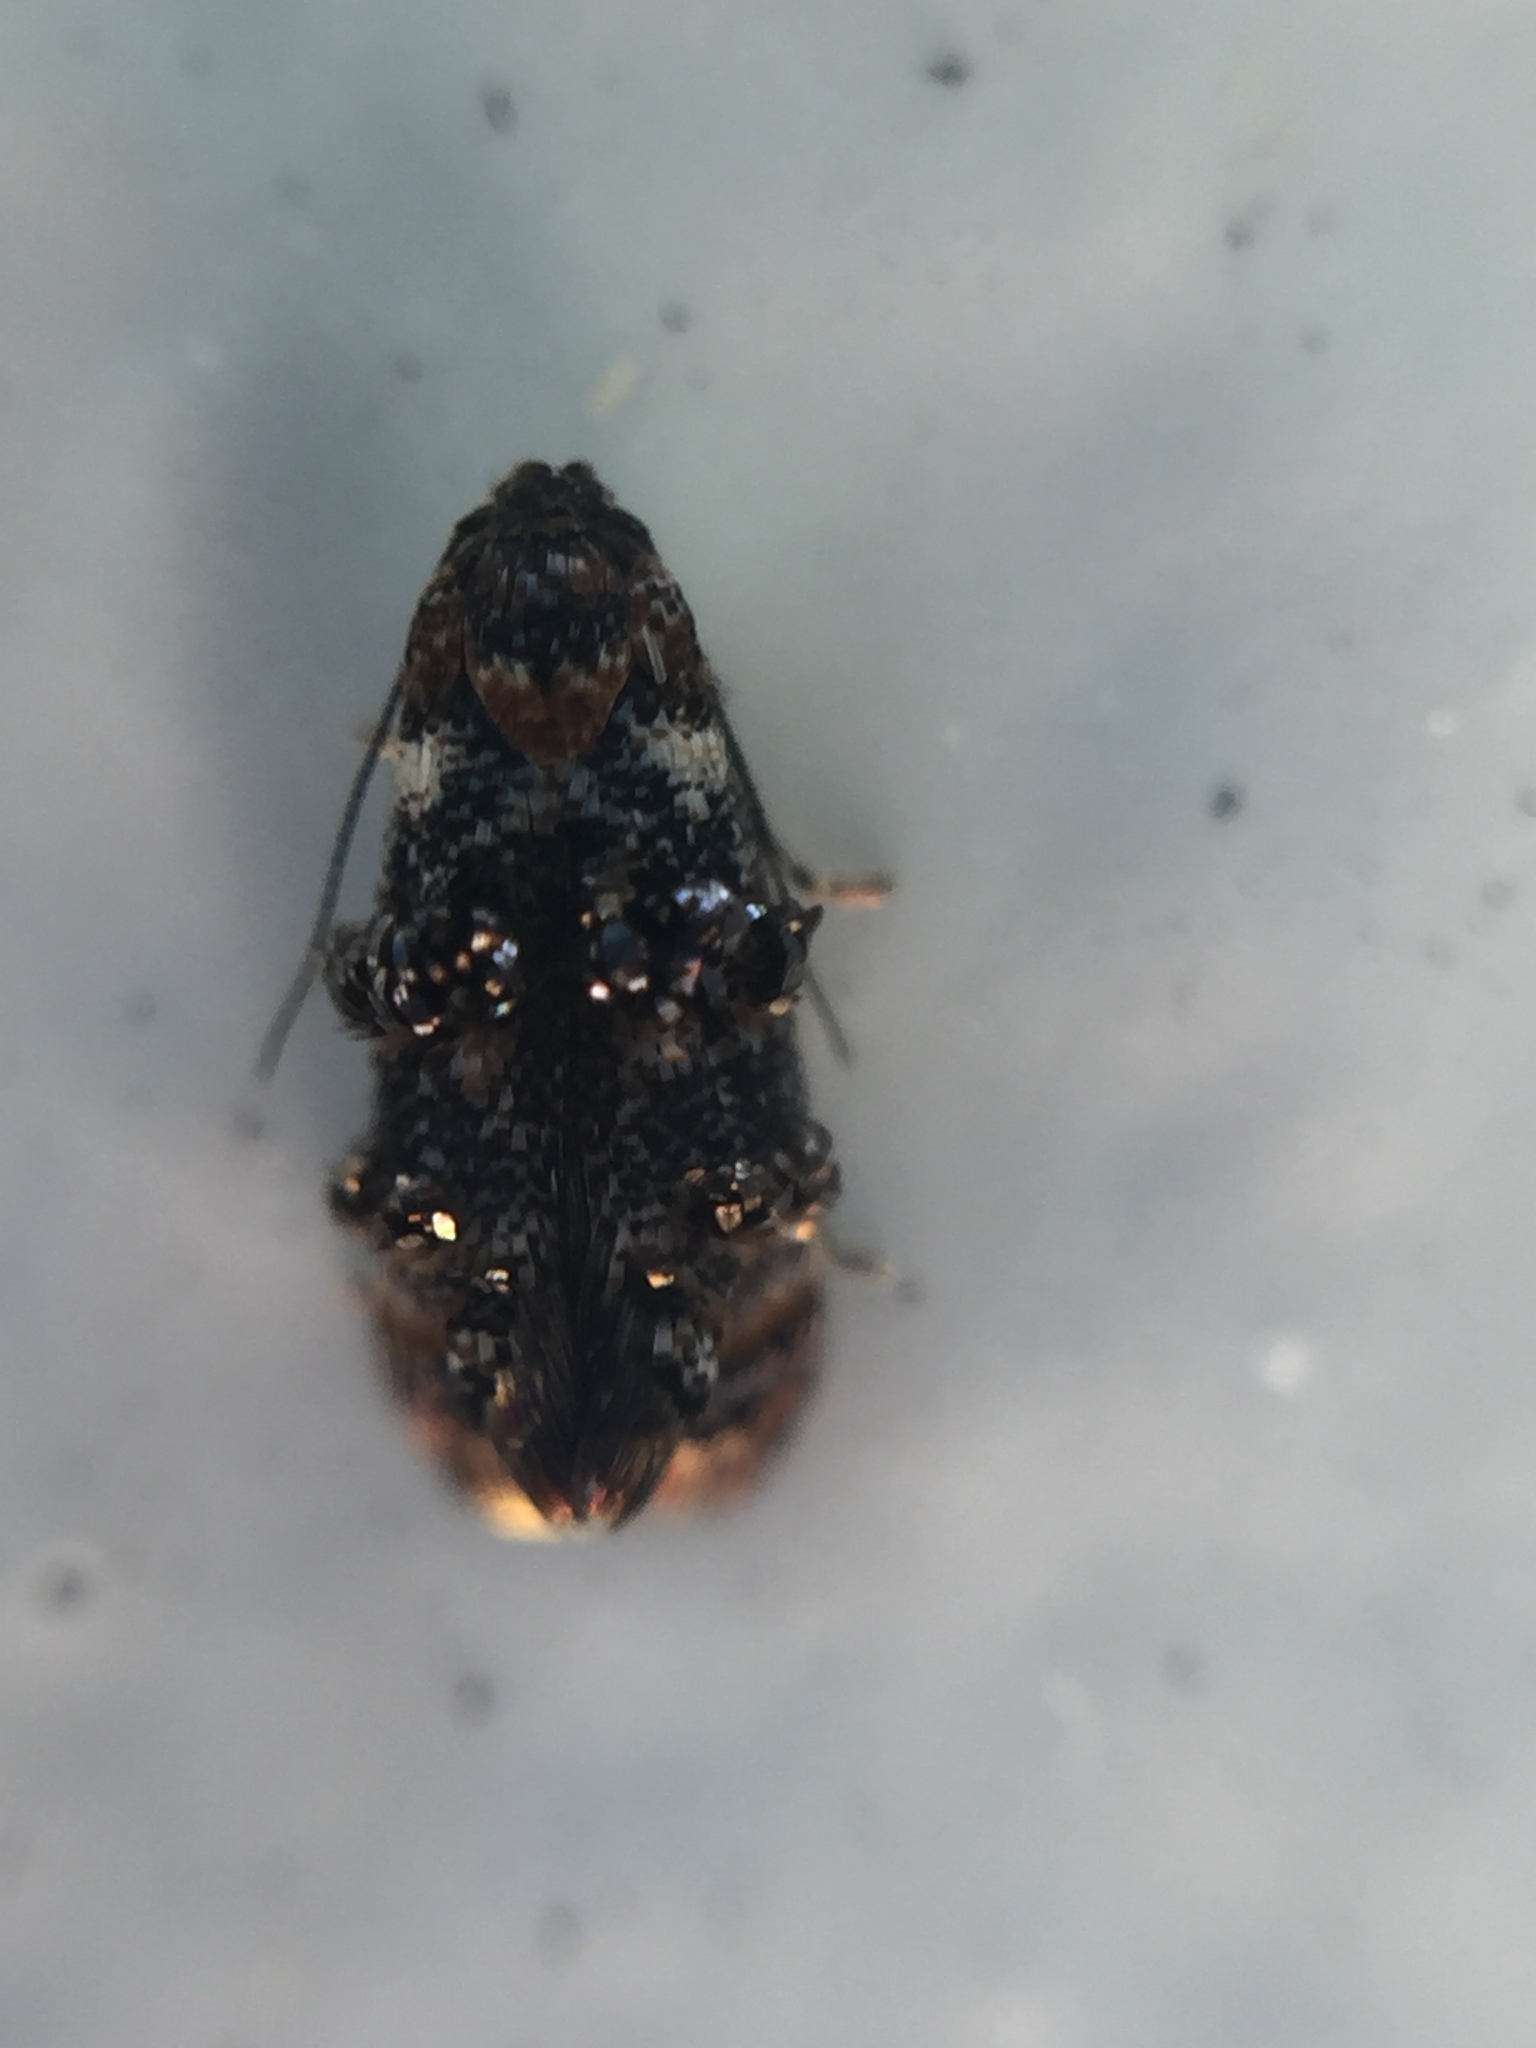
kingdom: Animalia
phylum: Arthropoda
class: Insecta
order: Lepidoptera
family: Oecophoridae
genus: Corocosma
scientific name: Corocosma memorabilis
